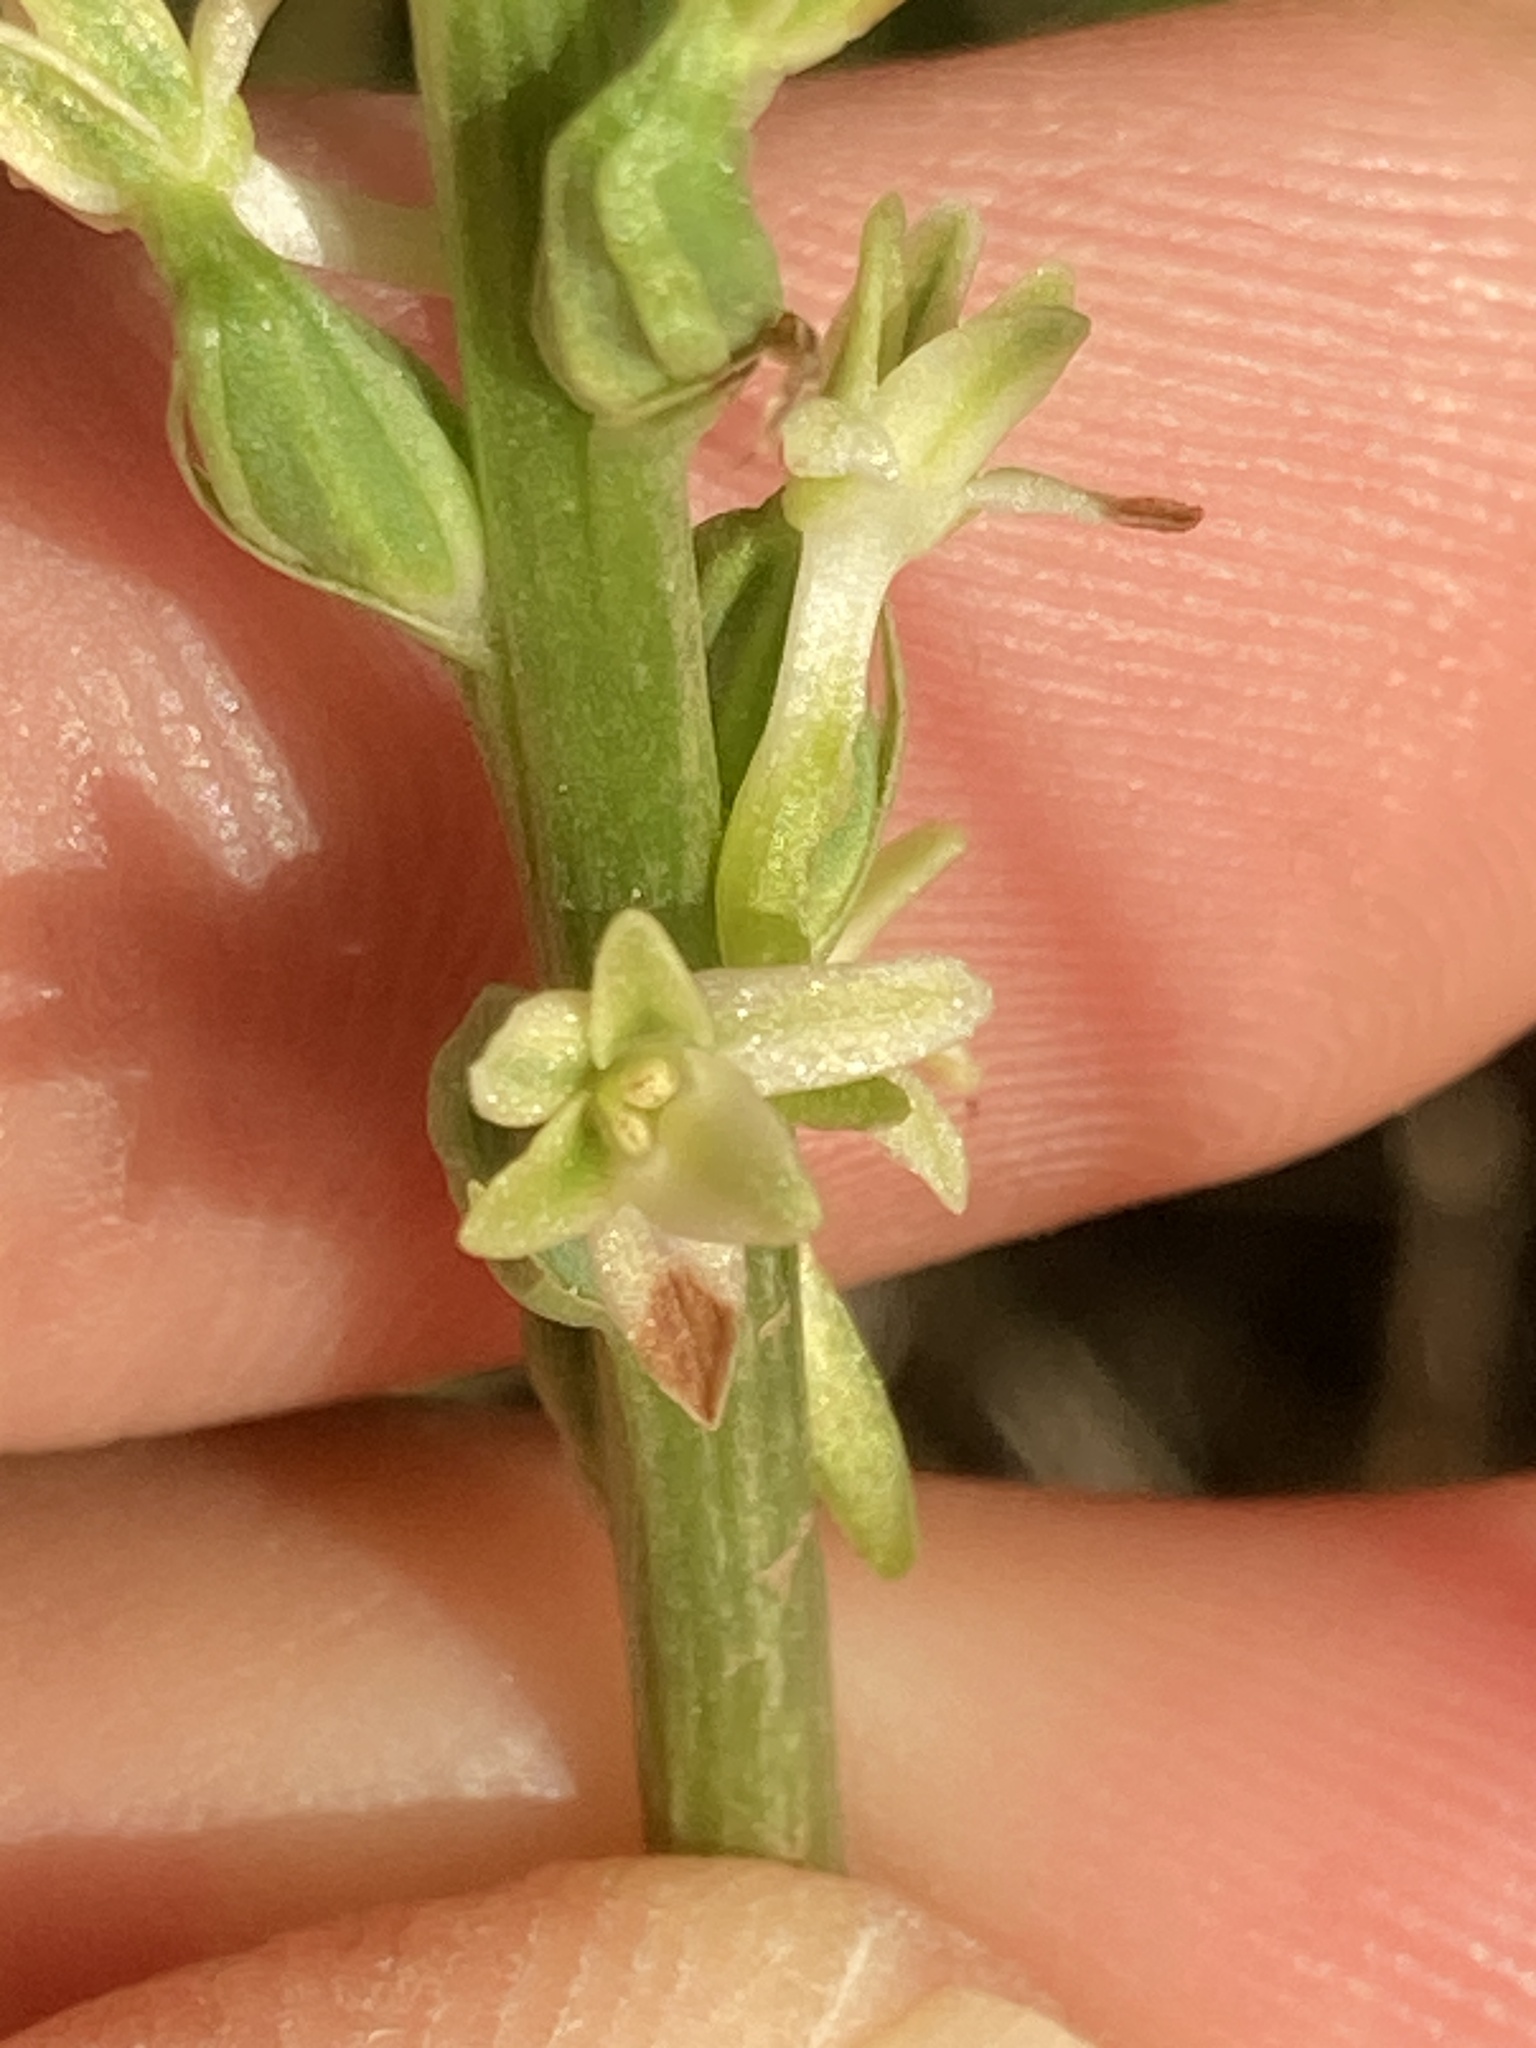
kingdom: Plantae
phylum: Tracheophyta
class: Liliopsida
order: Asparagales
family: Orchidaceae
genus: Platanthera
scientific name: Platanthera transversa
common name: Royal rein orchid
